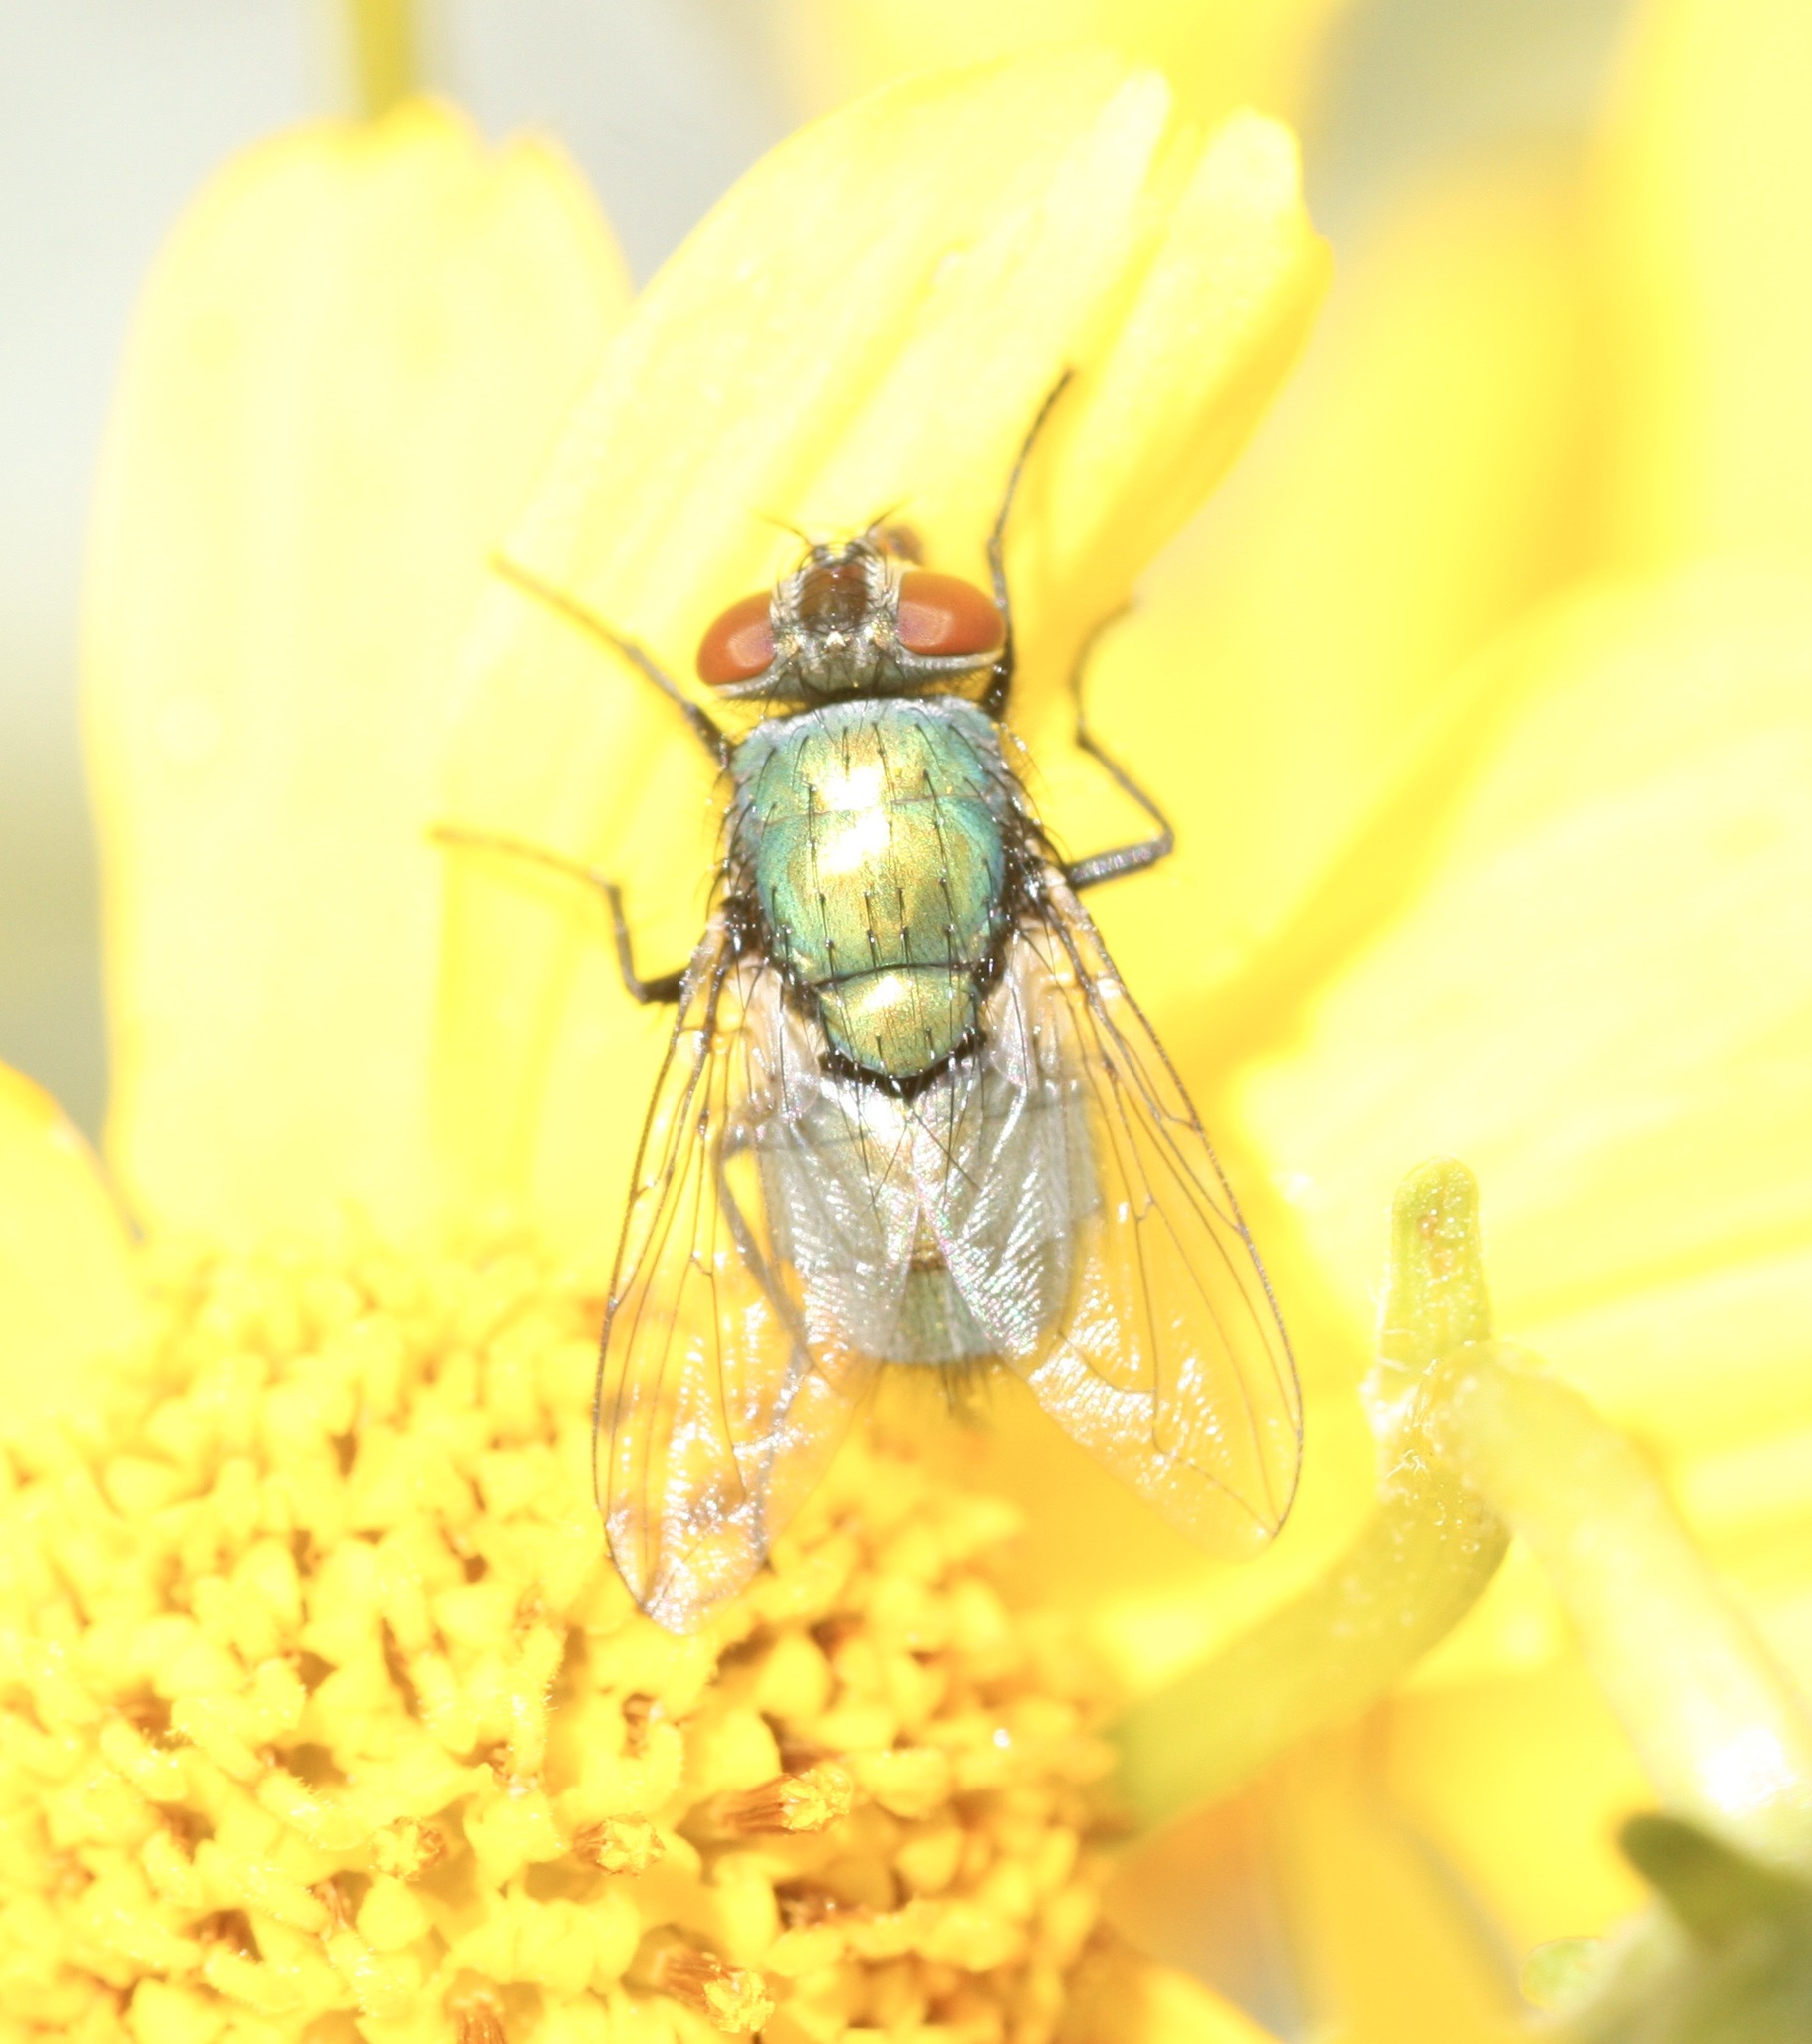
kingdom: Animalia
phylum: Arthropoda
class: Insecta
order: Diptera
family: Calliphoridae
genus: Lucilia
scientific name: Lucilia
